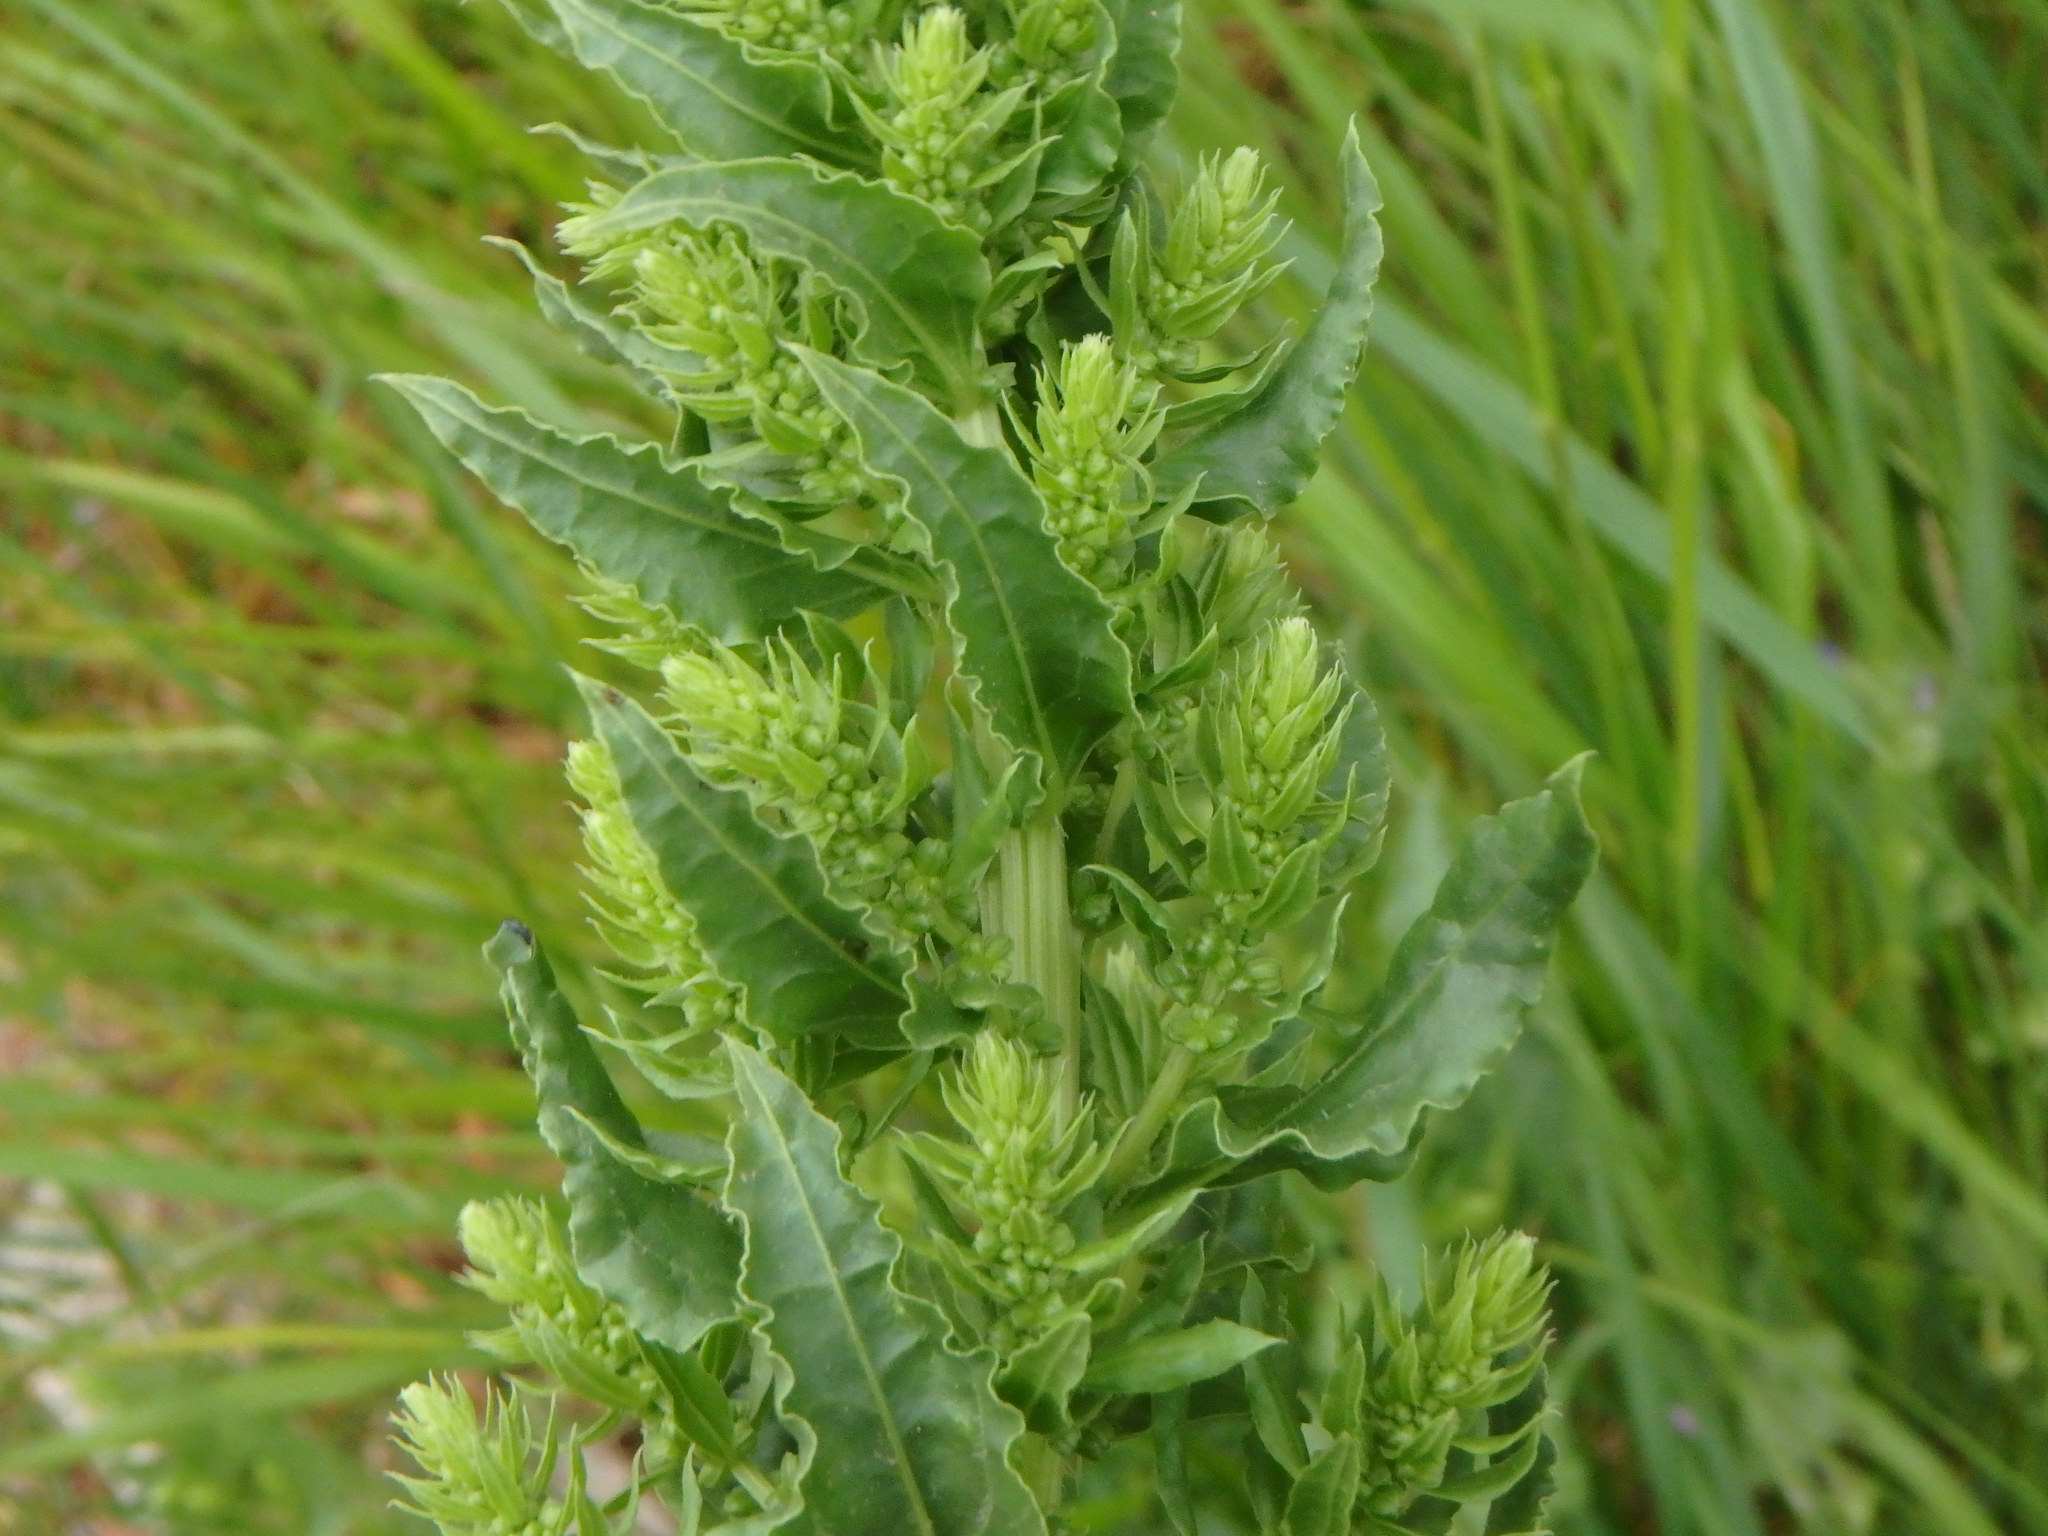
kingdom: Plantae
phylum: Tracheophyta
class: Magnoliopsida
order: Caryophyllales
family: Amaranthaceae
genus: Beta
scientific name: Beta vulgaris
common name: Beet
